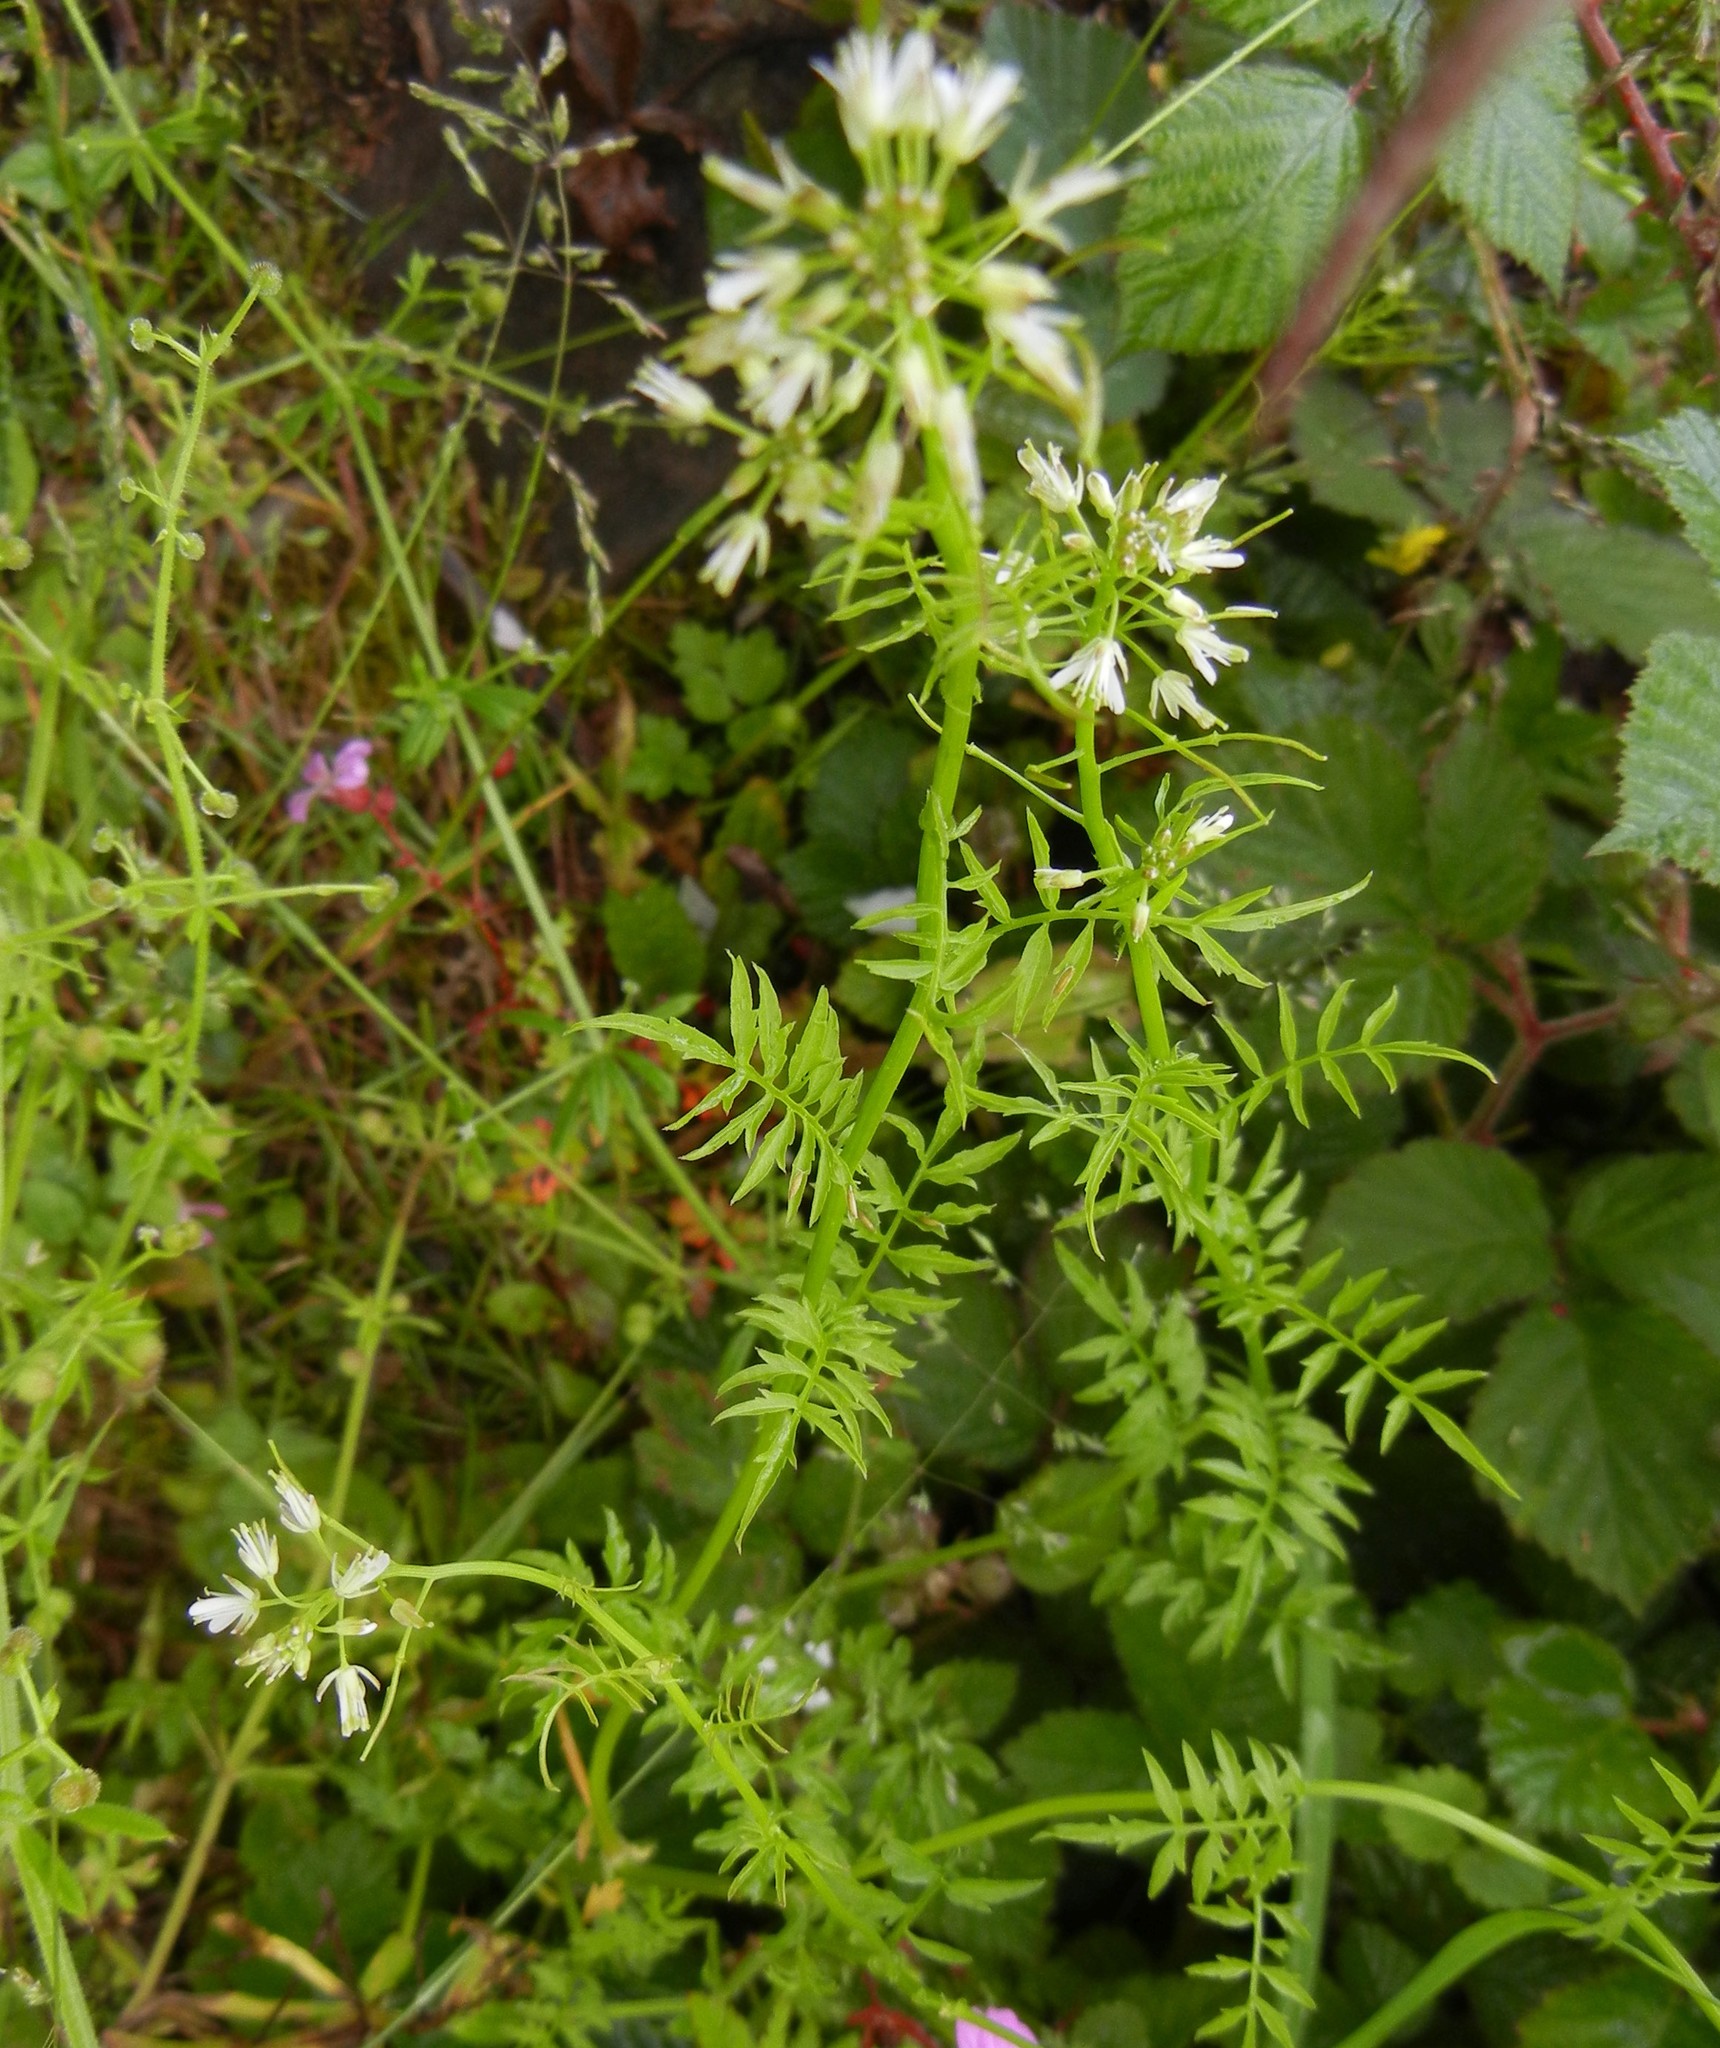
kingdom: Plantae
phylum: Tracheophyta
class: Magnoliopsida
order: Brassicales
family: Brassicaceae
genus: Cardamine
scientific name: Cardamine impatiens
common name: Narrow-leaved bitter-cress
